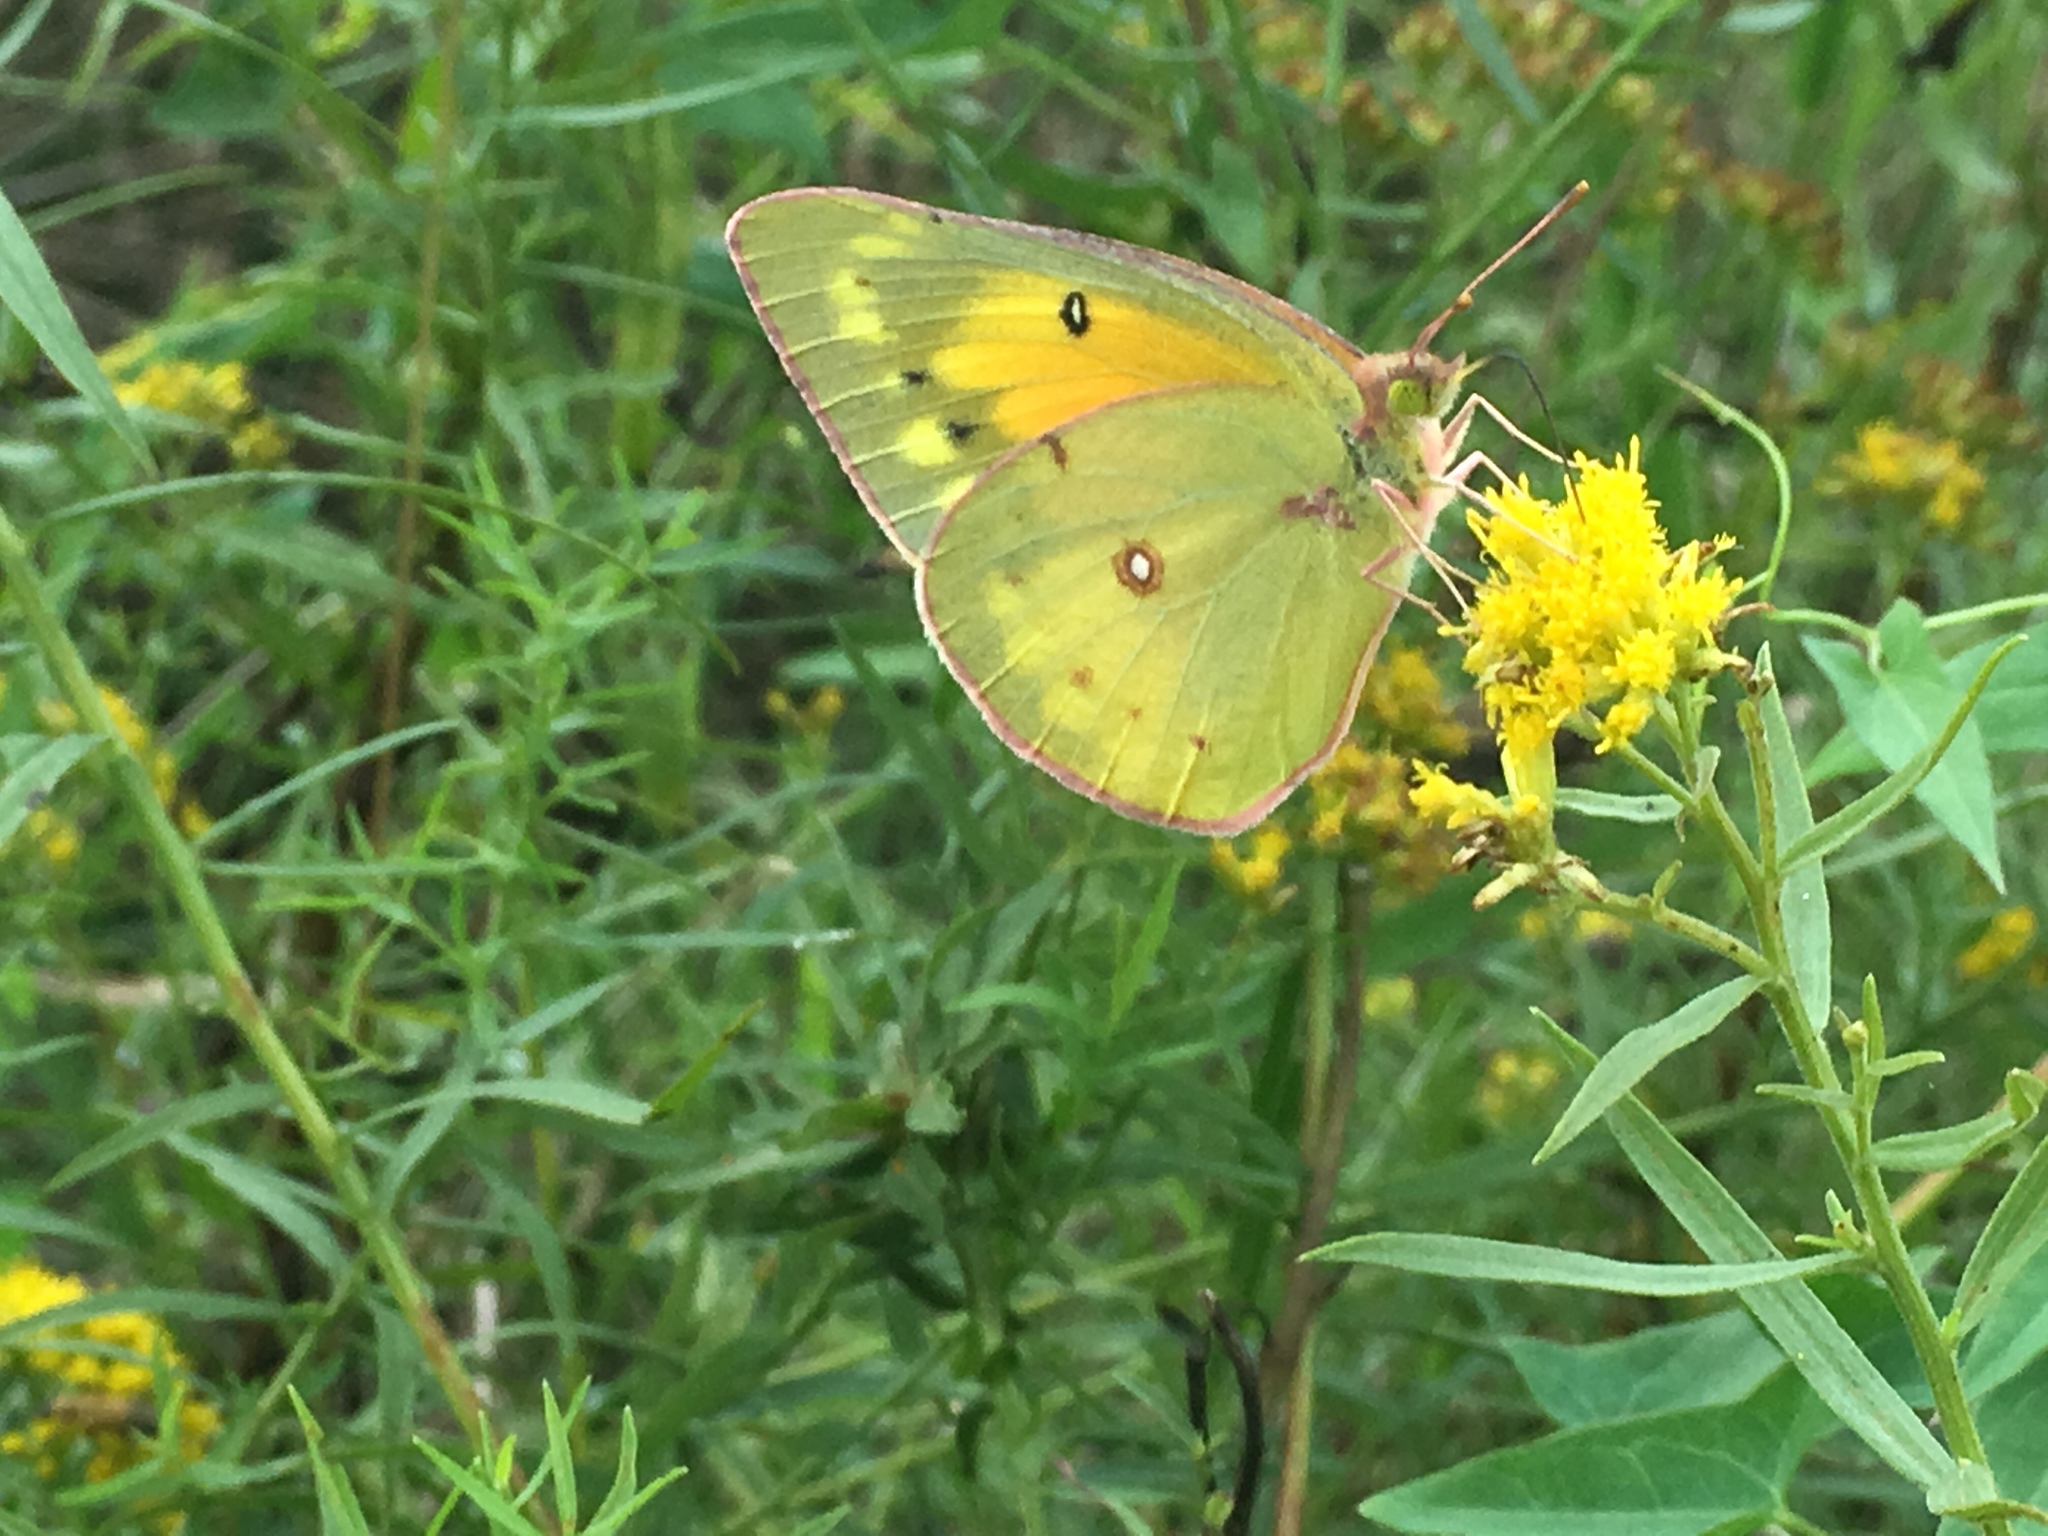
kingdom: Animalia
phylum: Arthropoda
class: Insecta
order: Lepidoptera
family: Pieridae
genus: Colias
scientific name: Colias eurytheme
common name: Alfalfa butterfly
